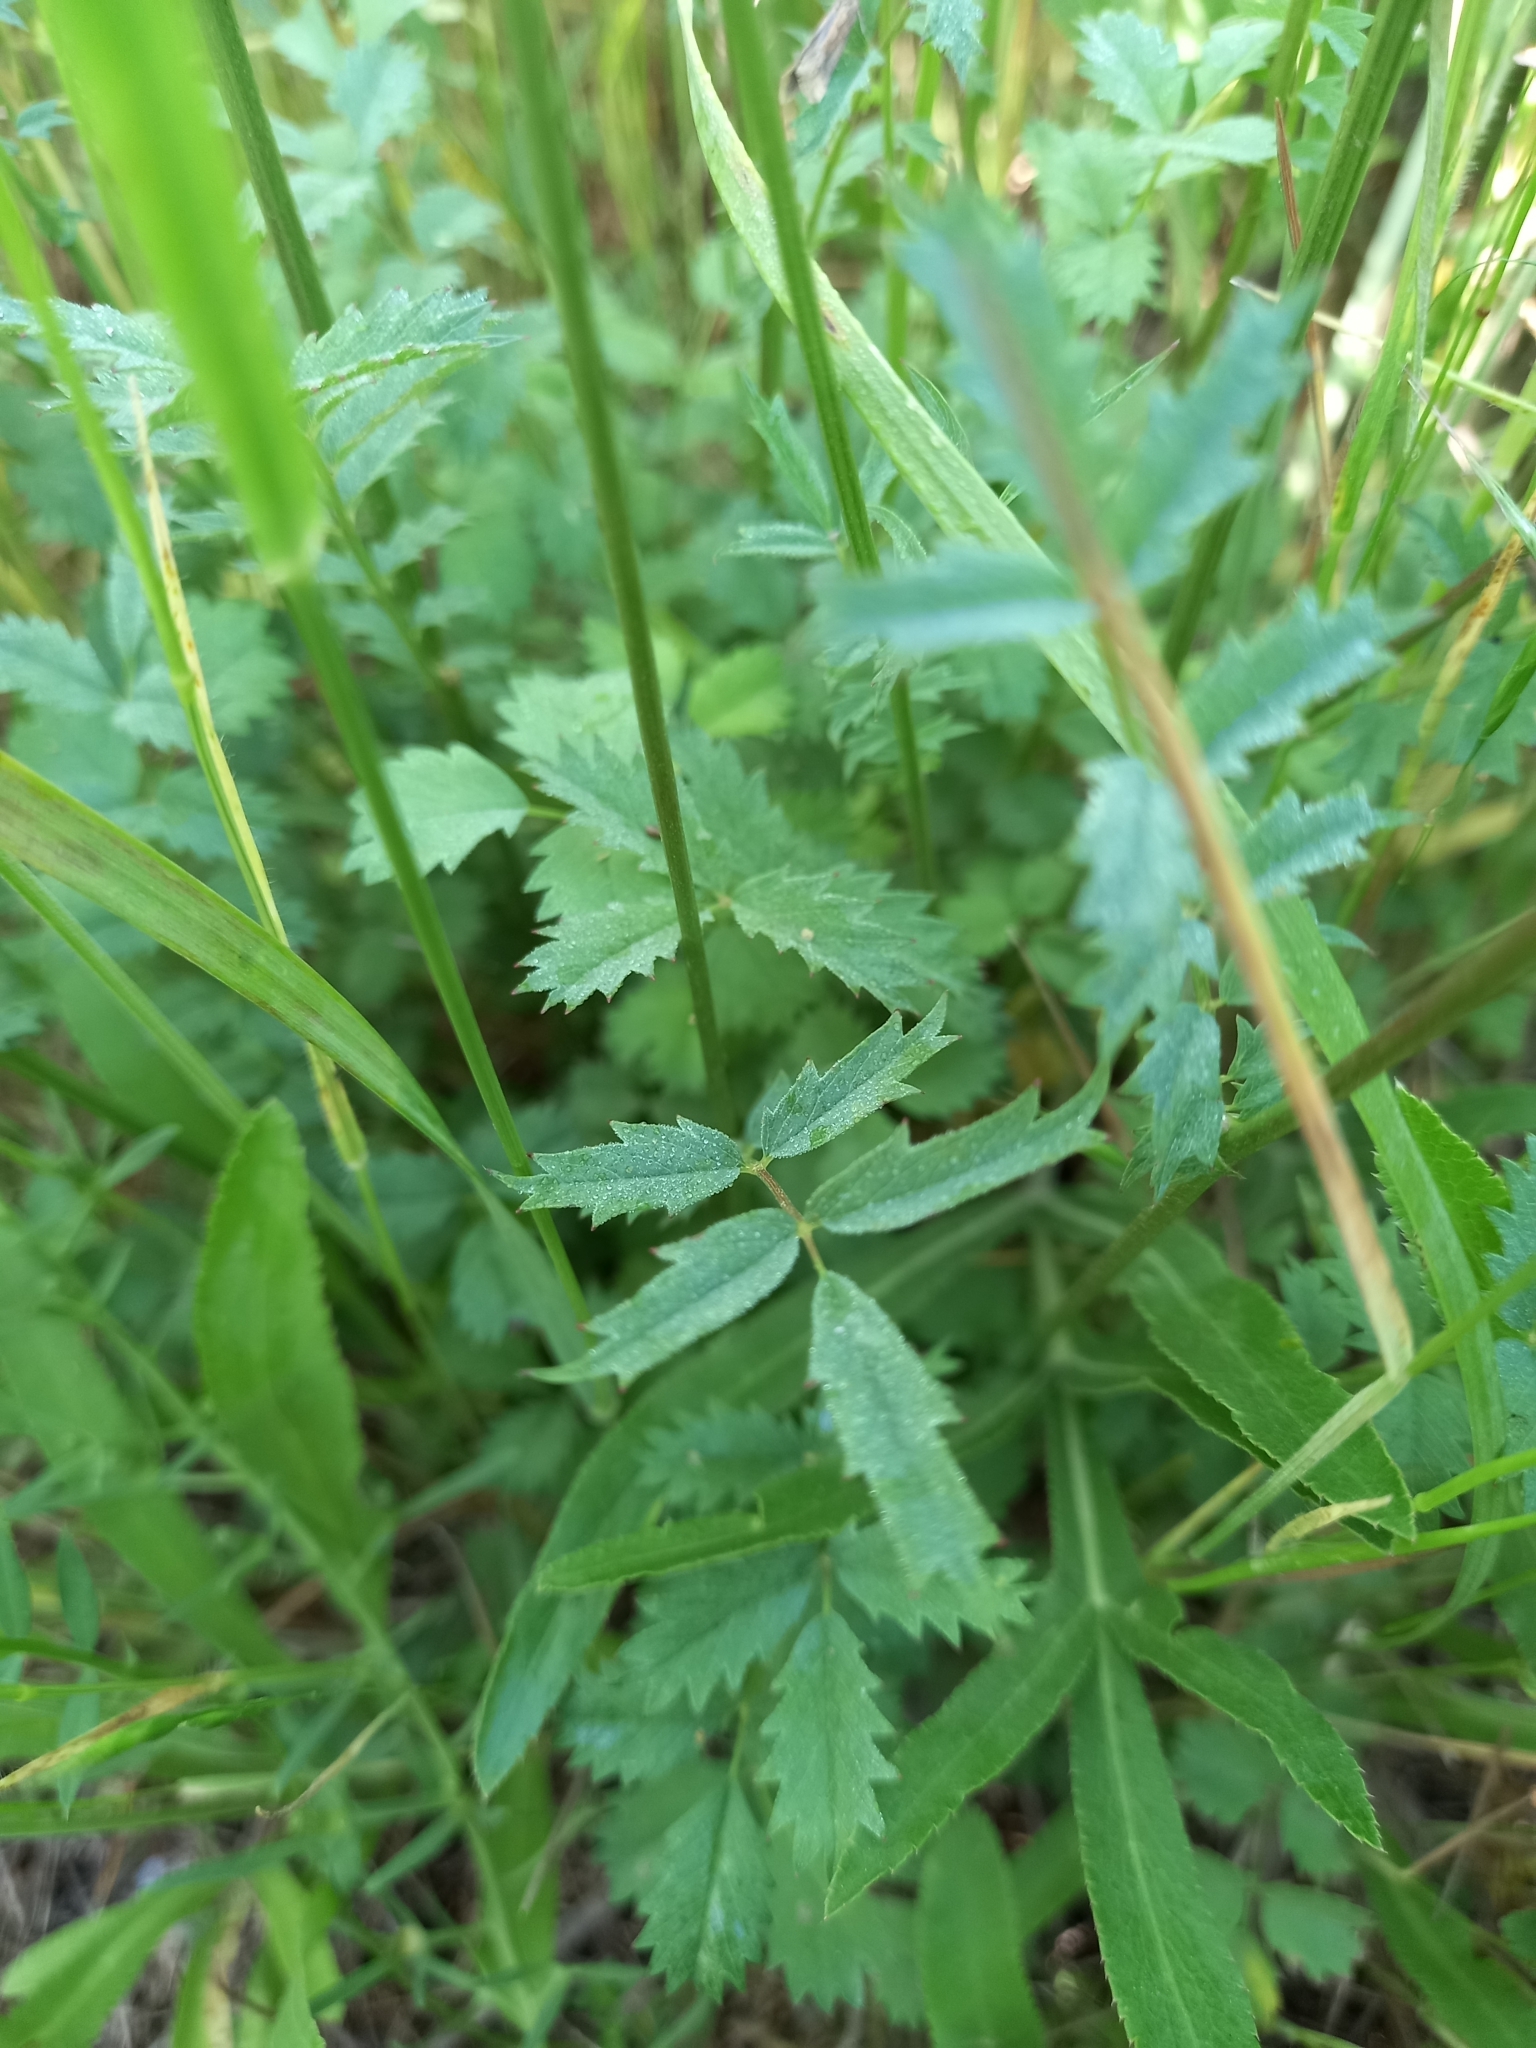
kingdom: Plantae
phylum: Tracheophyta
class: Magnoliopsida
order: Rosales
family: Rosaceae
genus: Poterium
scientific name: Poterium sanguisorba
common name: Salad burnet
